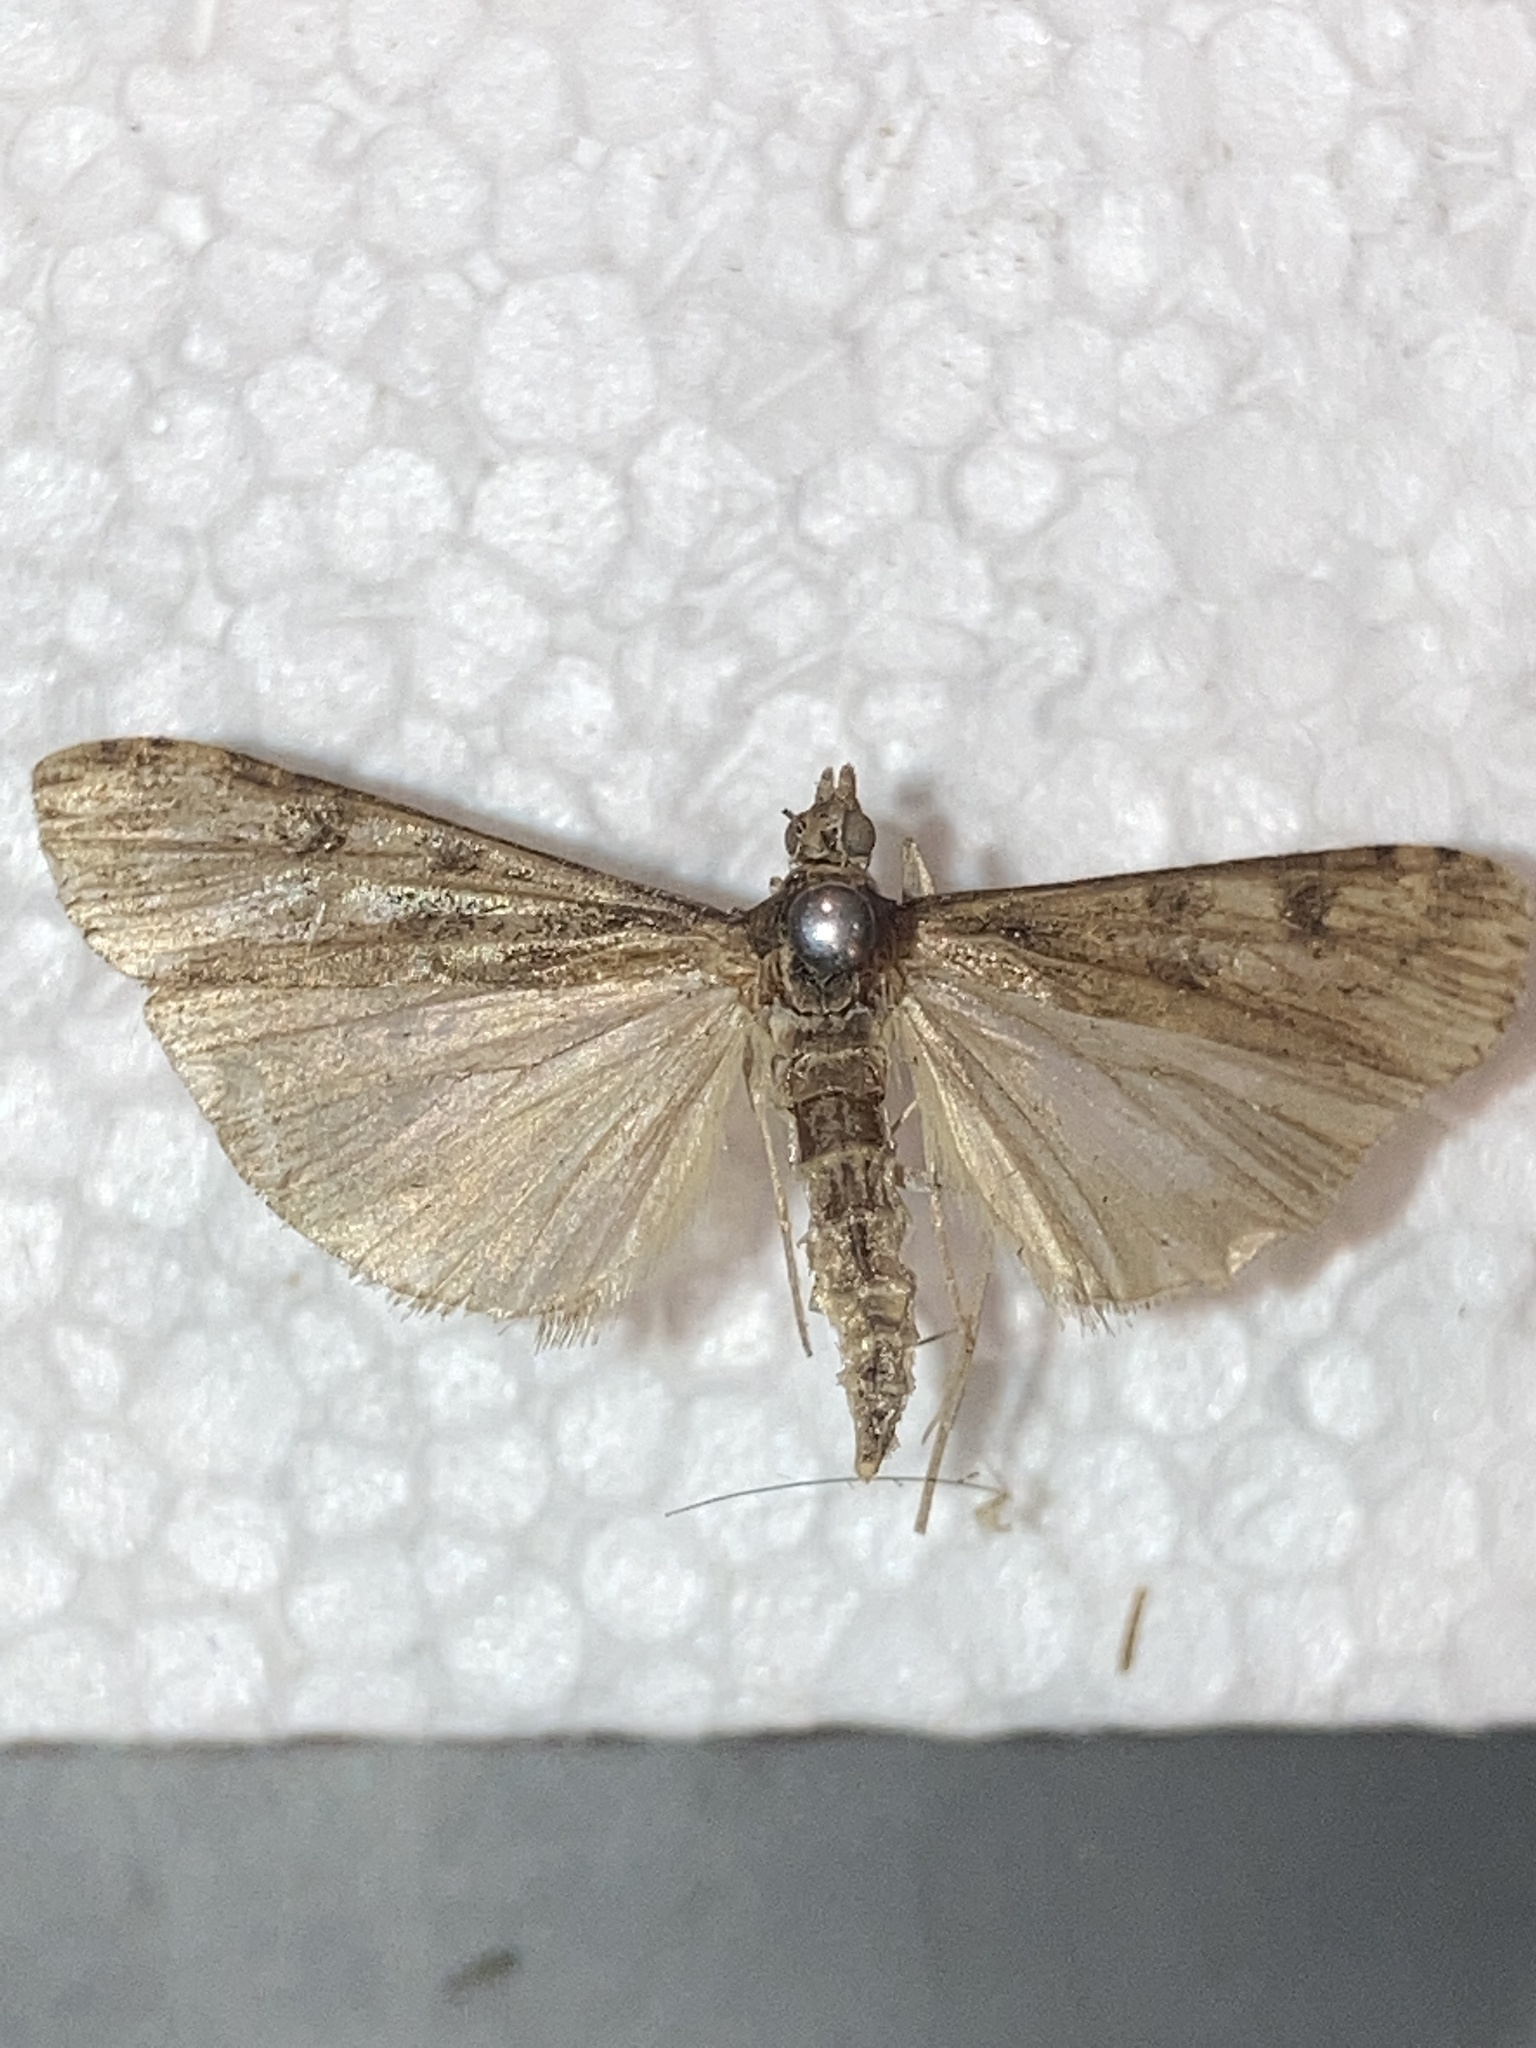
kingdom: Animalia
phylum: Arthropoda
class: Insecta
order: Lepidoptera
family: Crambidae
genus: Nomophila
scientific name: Nomophila nearctica
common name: American rush veneer
